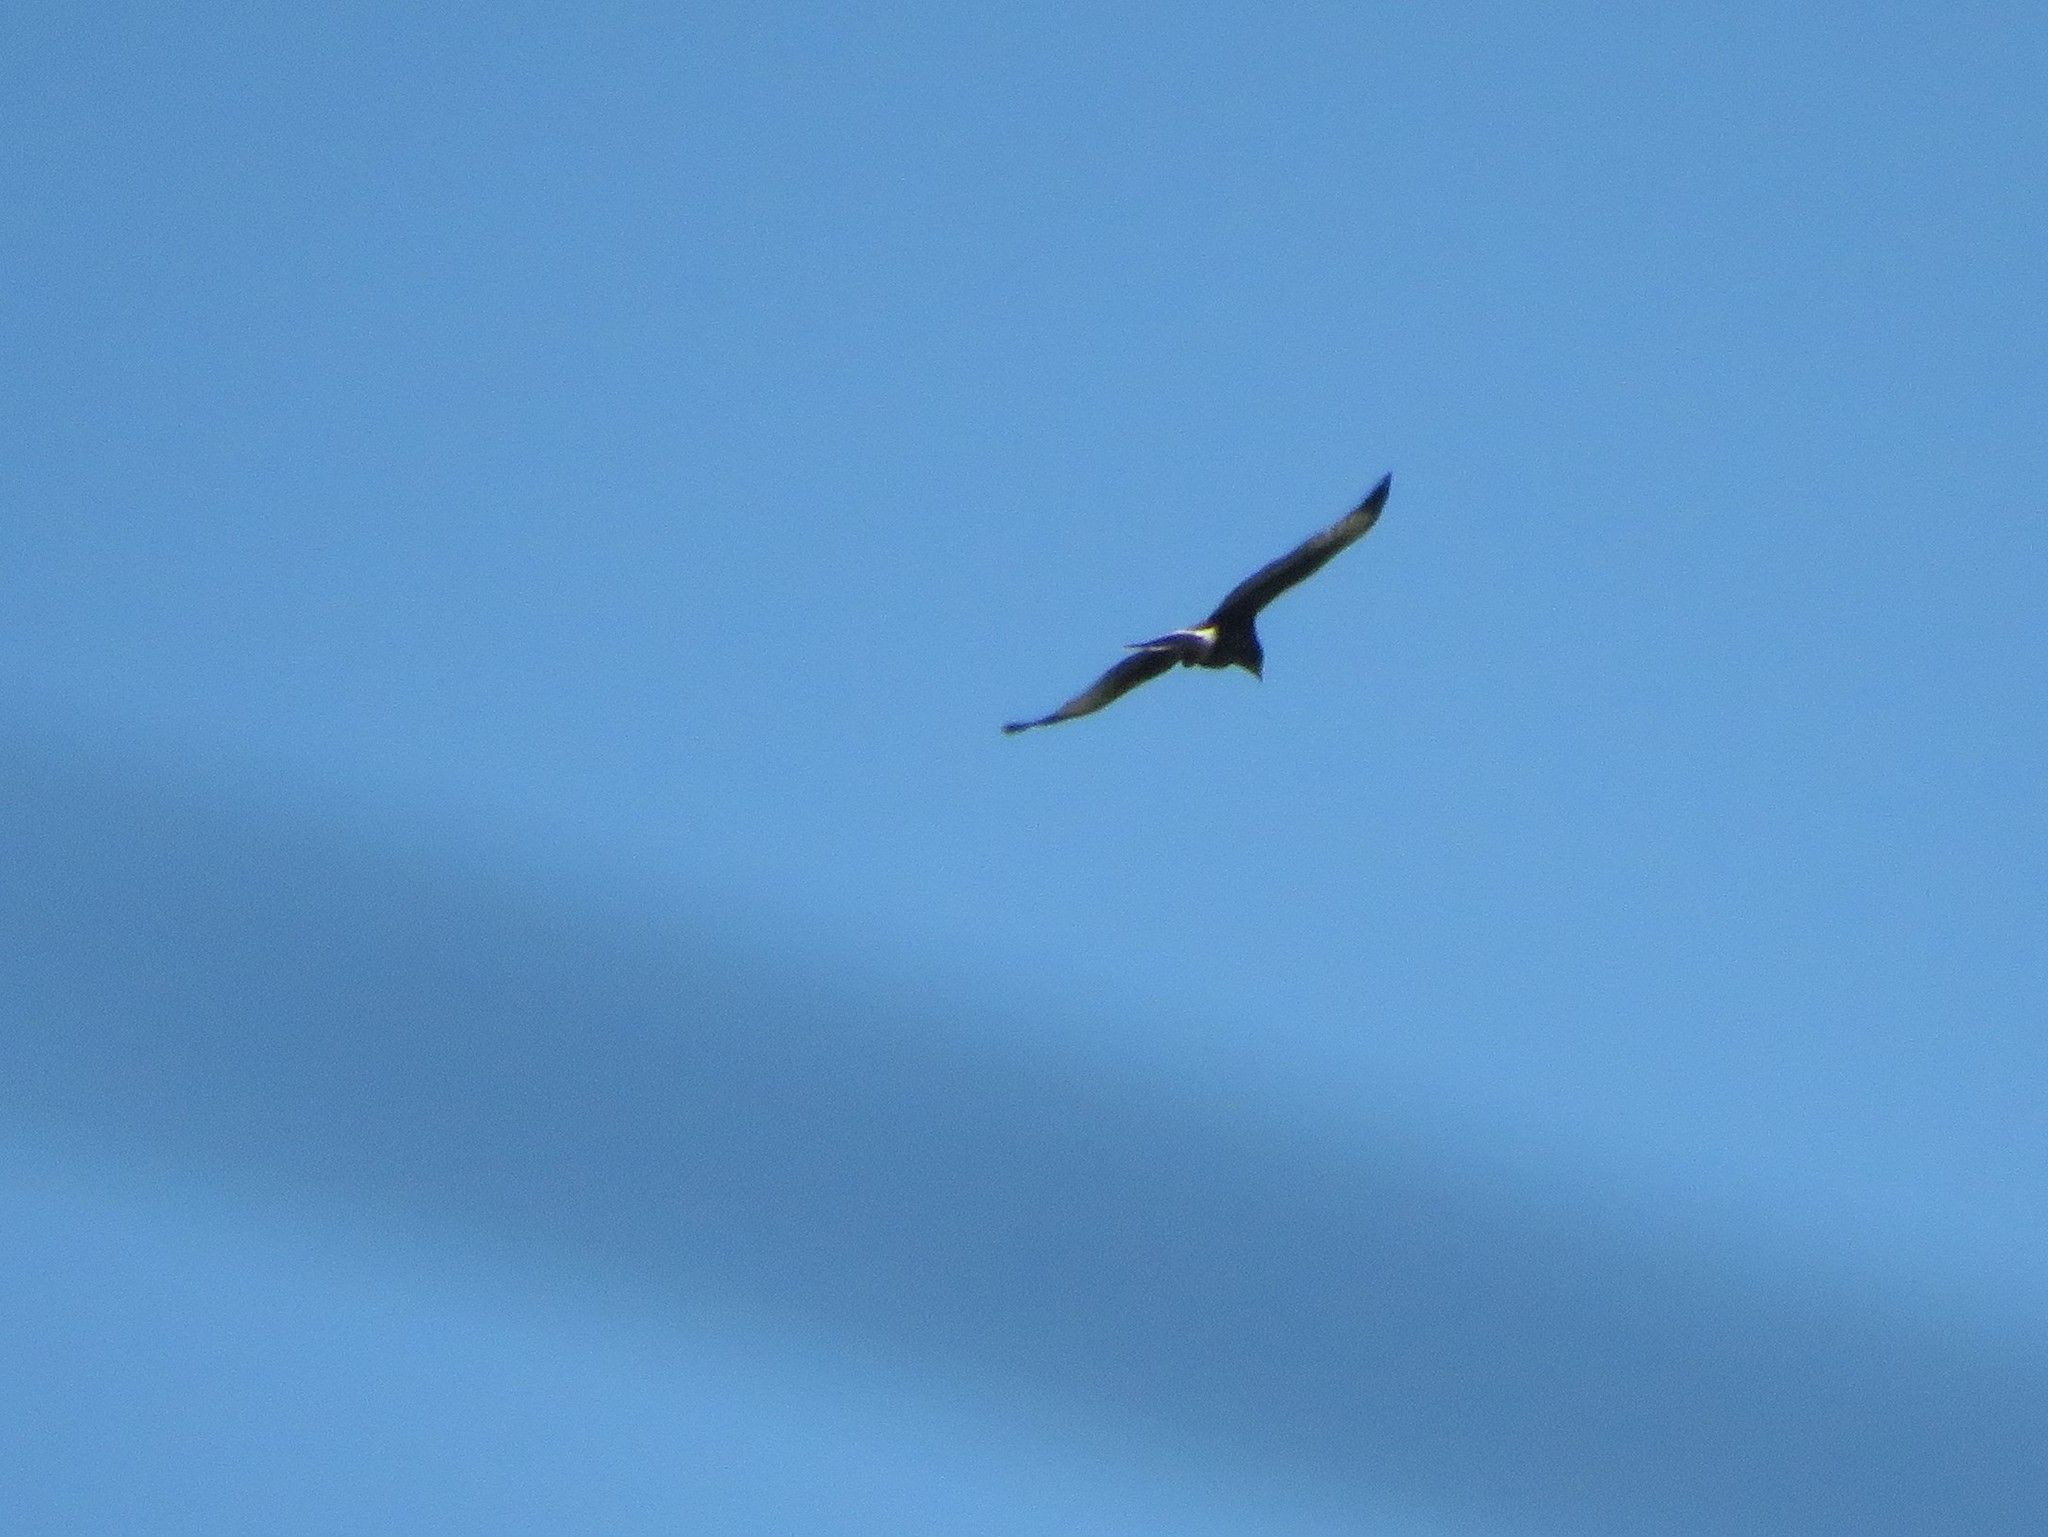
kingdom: Animalia
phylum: Chordata
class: Aves
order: Accipitriformes
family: Accipitridae
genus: Parabuteo
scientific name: Parabuteo unicinctus
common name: Harris's hawk
